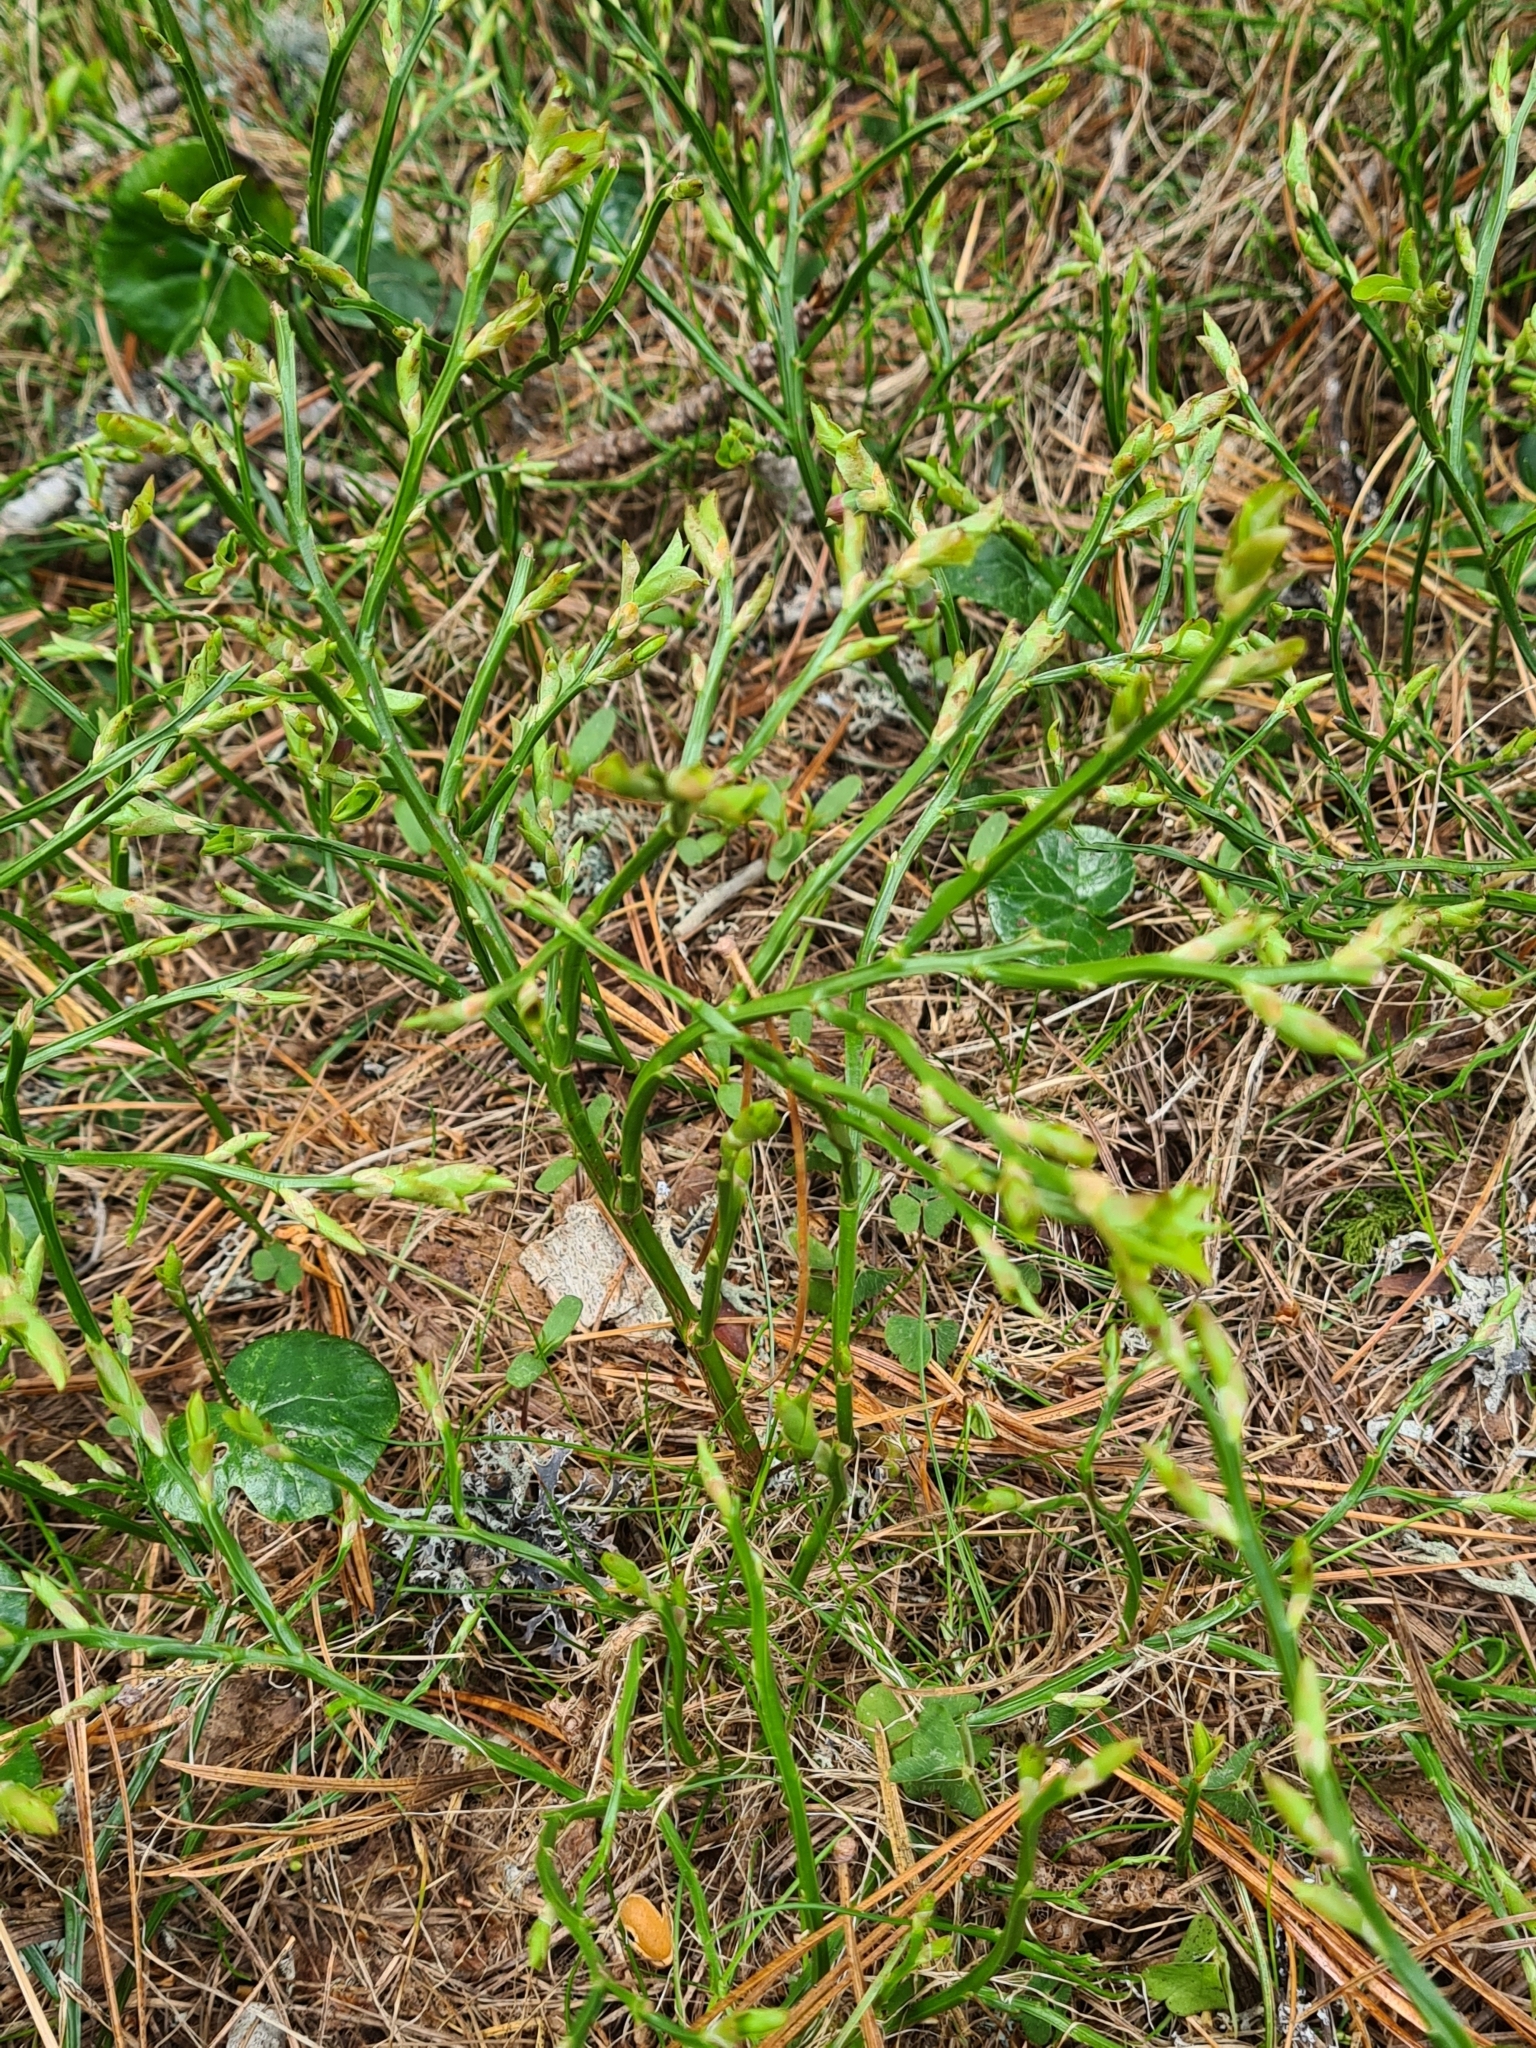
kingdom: Plantae
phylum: Tracheophyta
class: Magnoliopsida
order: Ericales
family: Ericaceae
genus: Vaccinium
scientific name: Vaccinium myrtillus
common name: Bilberry
